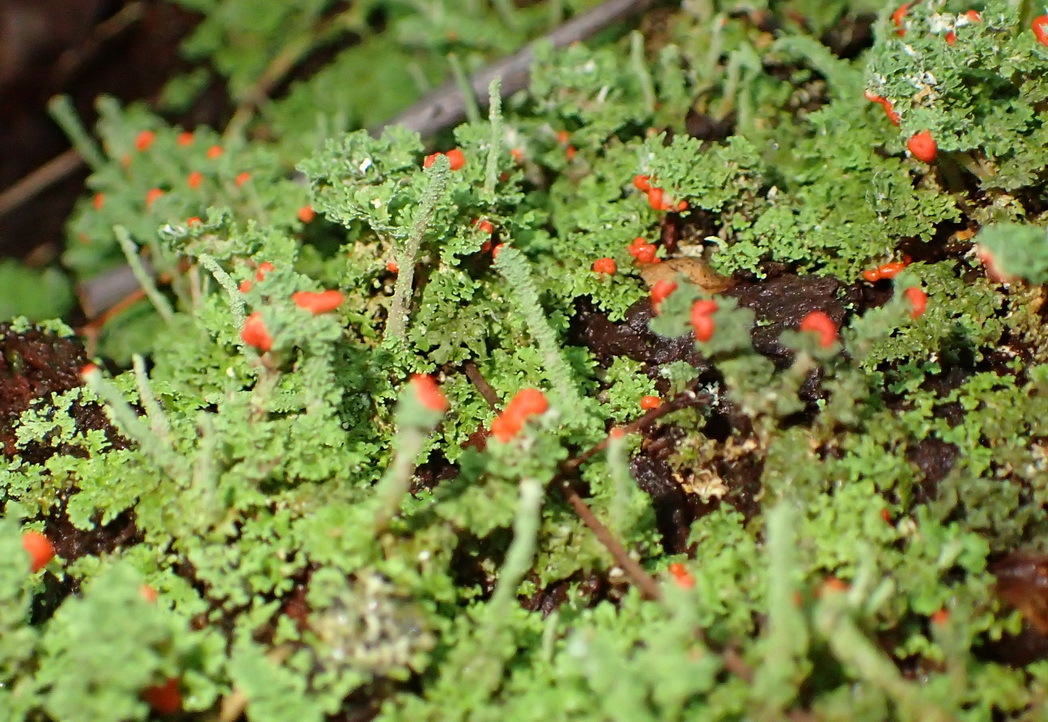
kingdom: Fungi
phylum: Ascomycota
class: Lecanoromycetes
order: Lecanorales
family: Cladoniaceae
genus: Cladonia
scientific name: Cladonia didyma
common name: Southern soldiers
